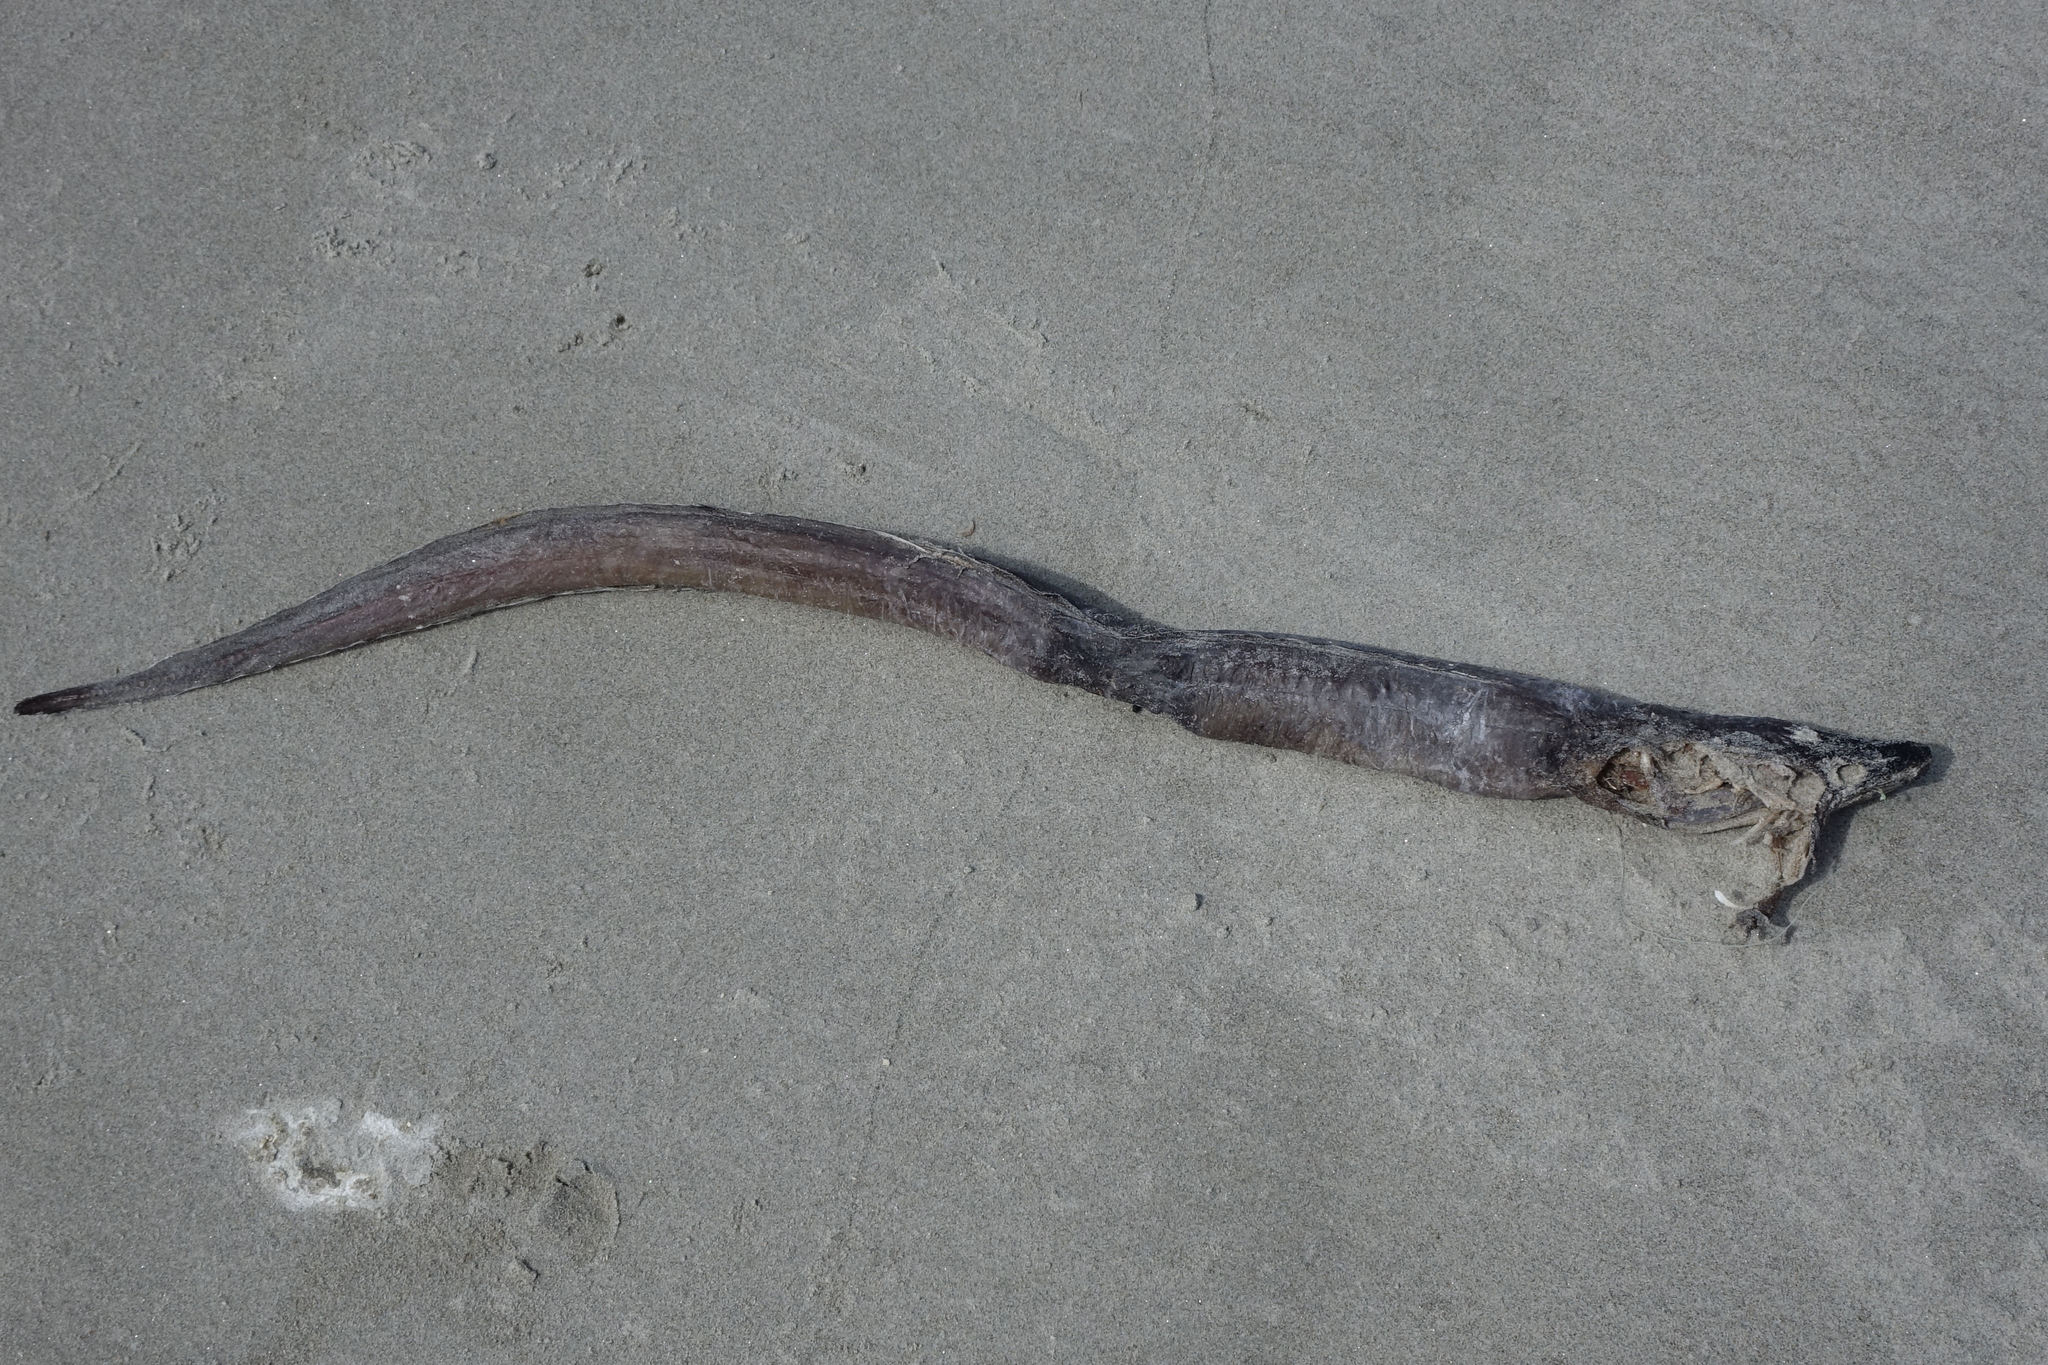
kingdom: Animalia
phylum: Chordata
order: Anguilliformes
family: Congridae
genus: Conger
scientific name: Conger verreauxi
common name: Conger eel
